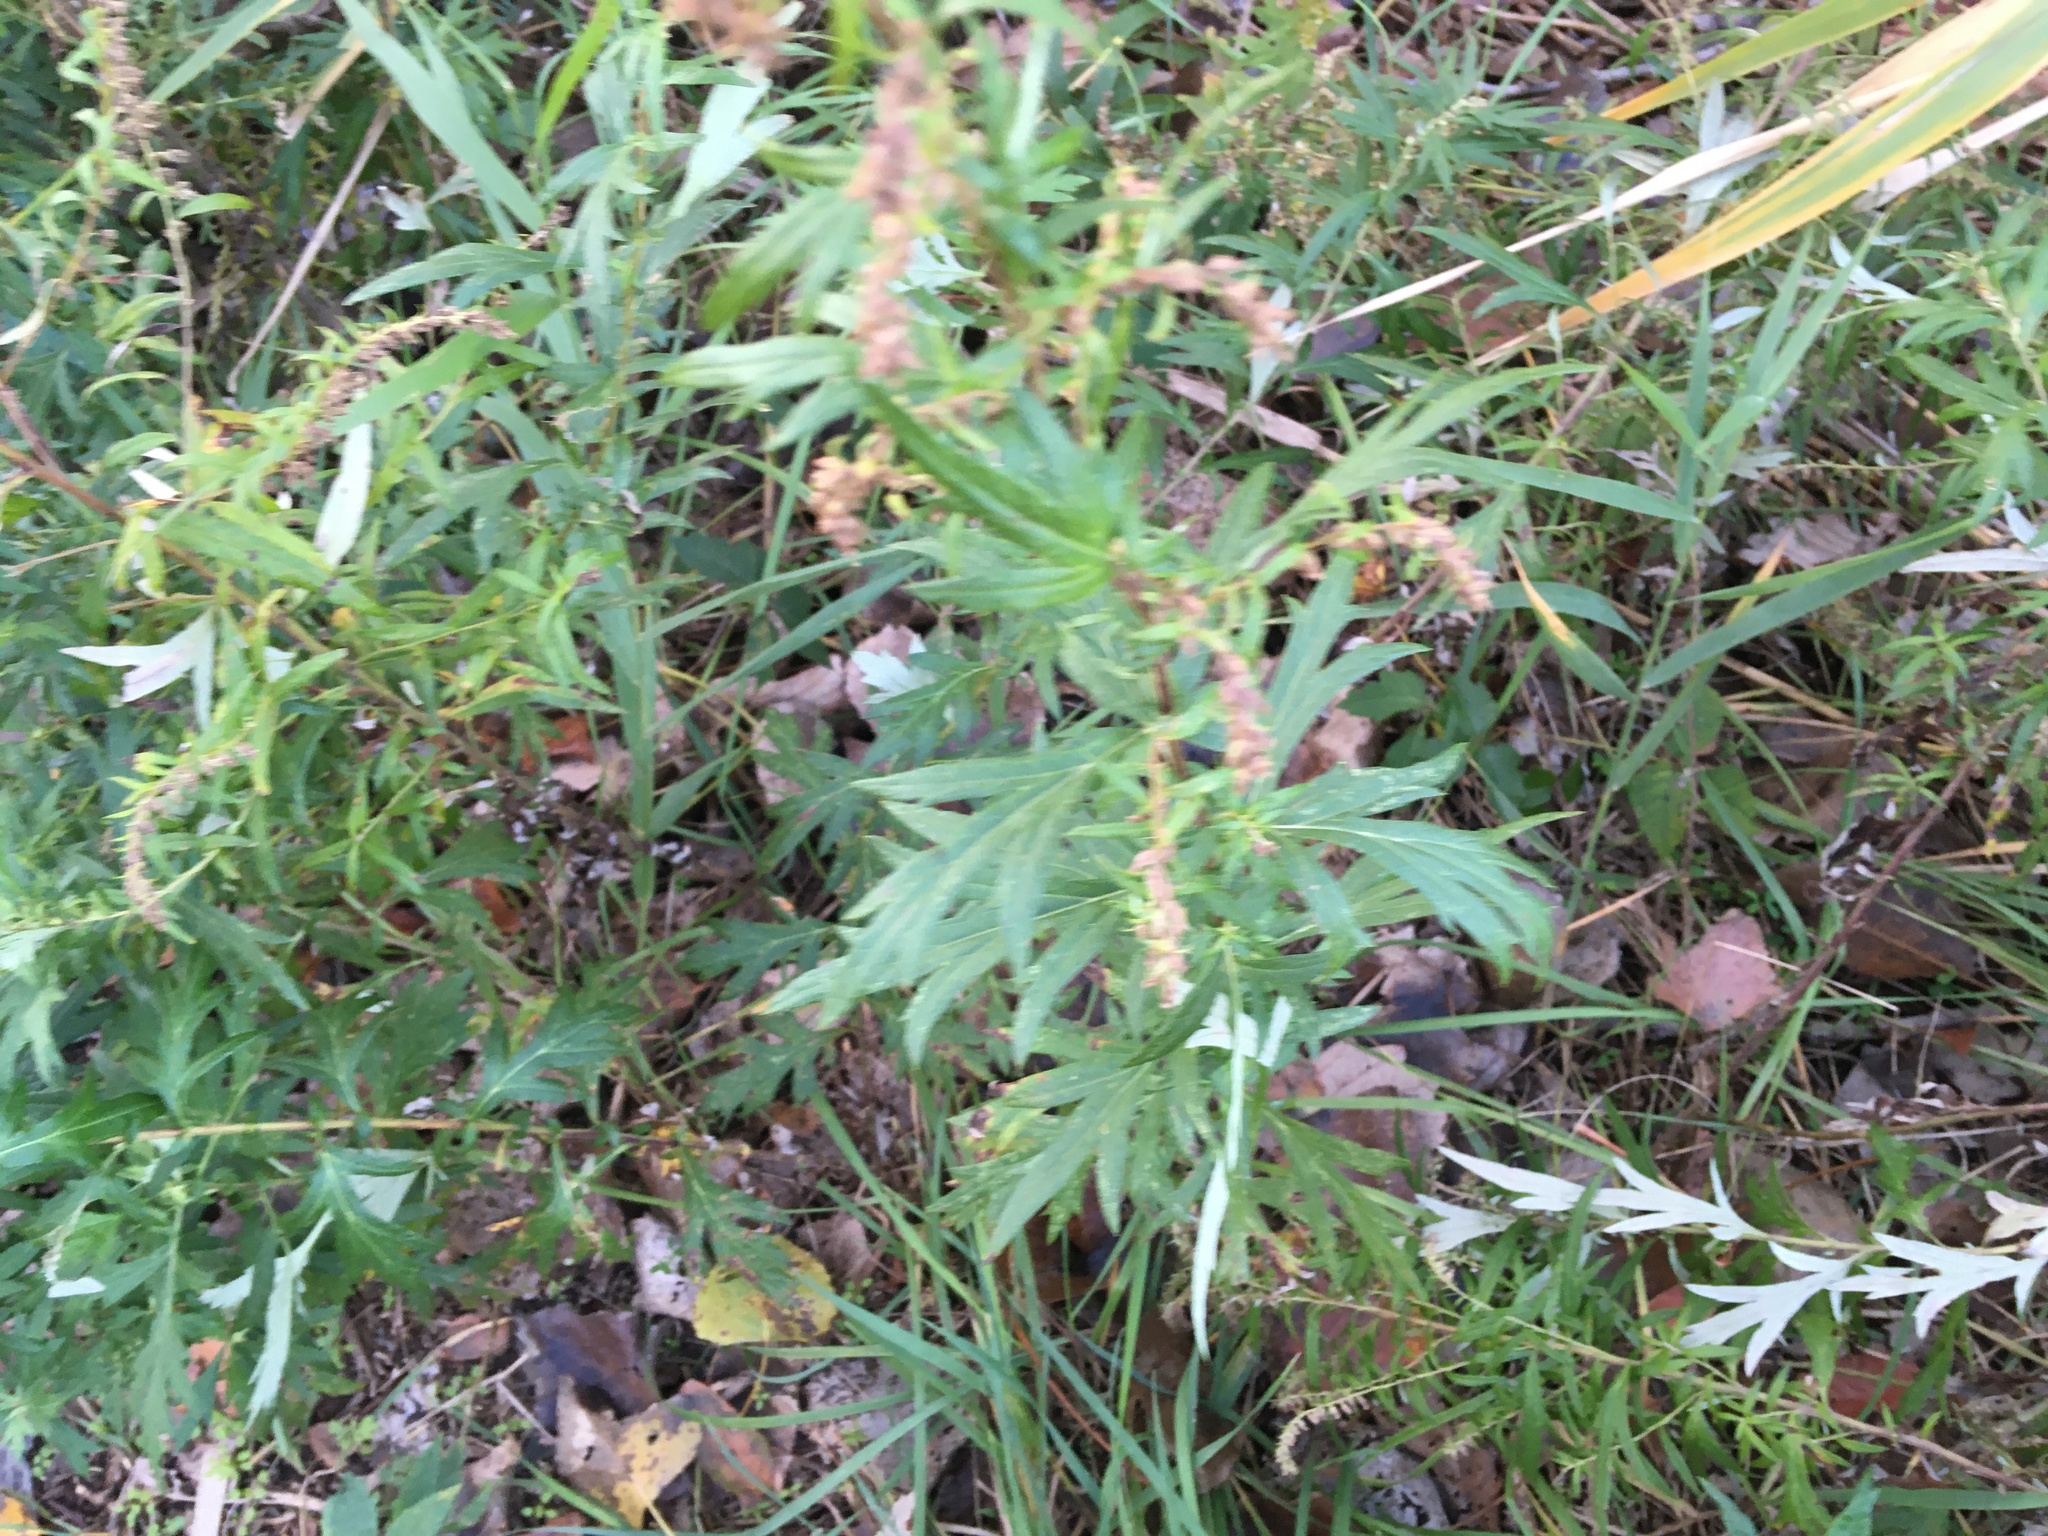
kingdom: Plantae
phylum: Tracheophyta
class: Magnoliopsida
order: Asterales
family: Asteraceae
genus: Artemisia
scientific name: Artemisia vulgaris
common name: Mugwort
